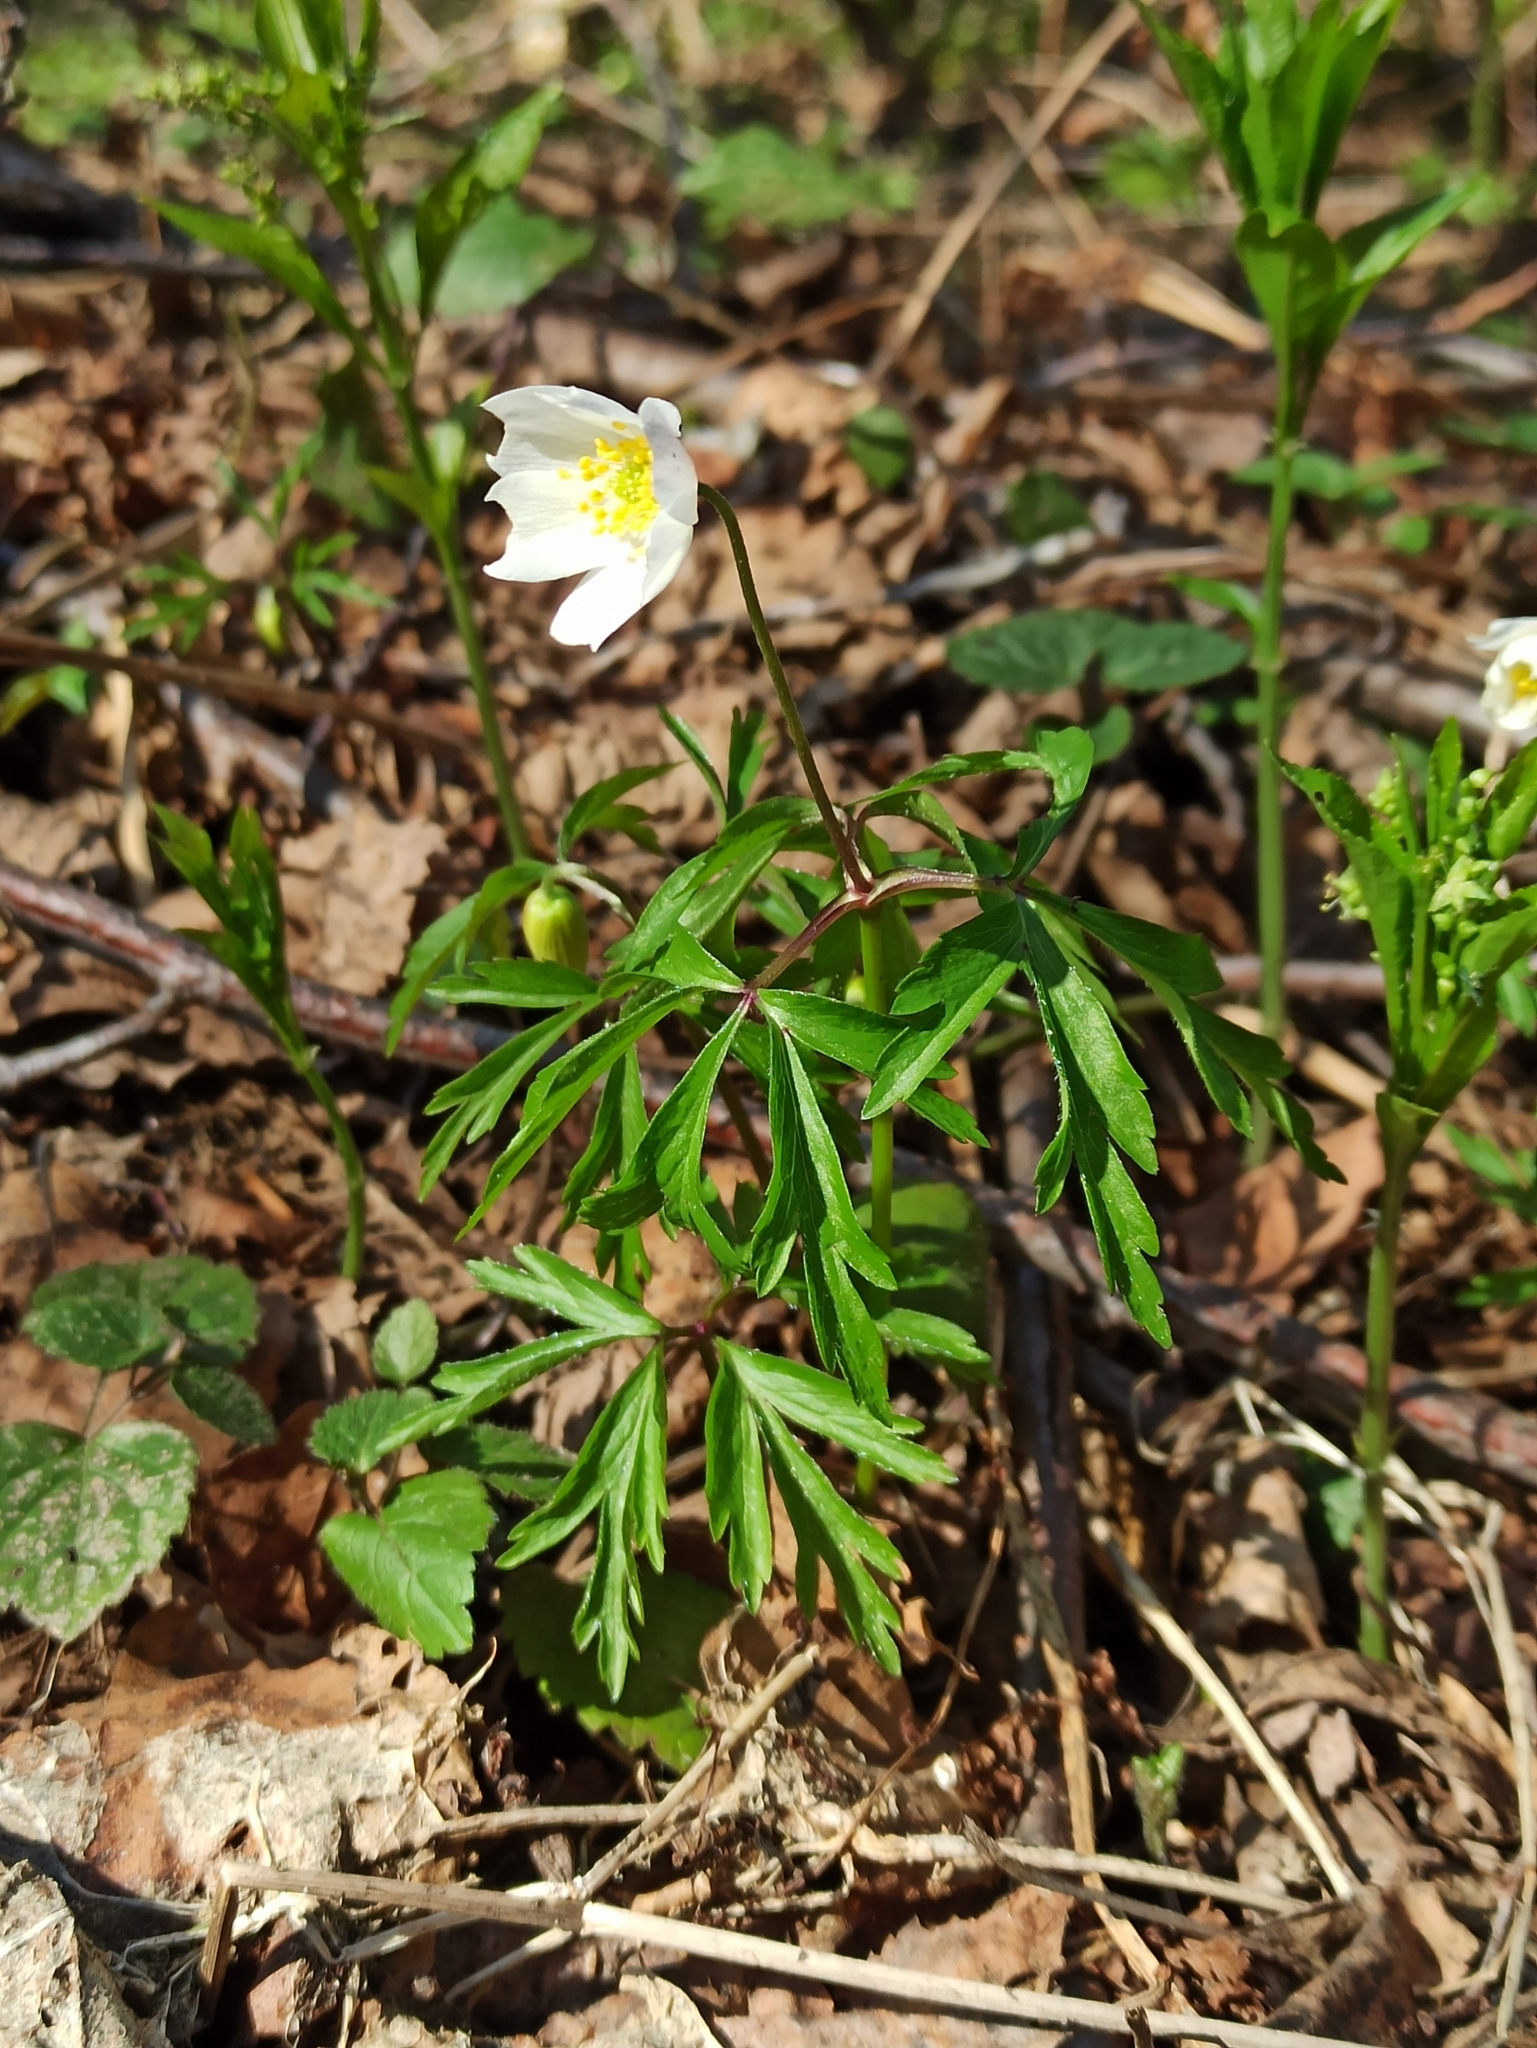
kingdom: Plantae
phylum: Tracheophyta
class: Magnoliopsida
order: Ranunculales
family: Ranunculaceae
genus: Anemone
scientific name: Anemone nemorosa
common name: Wood anemone
